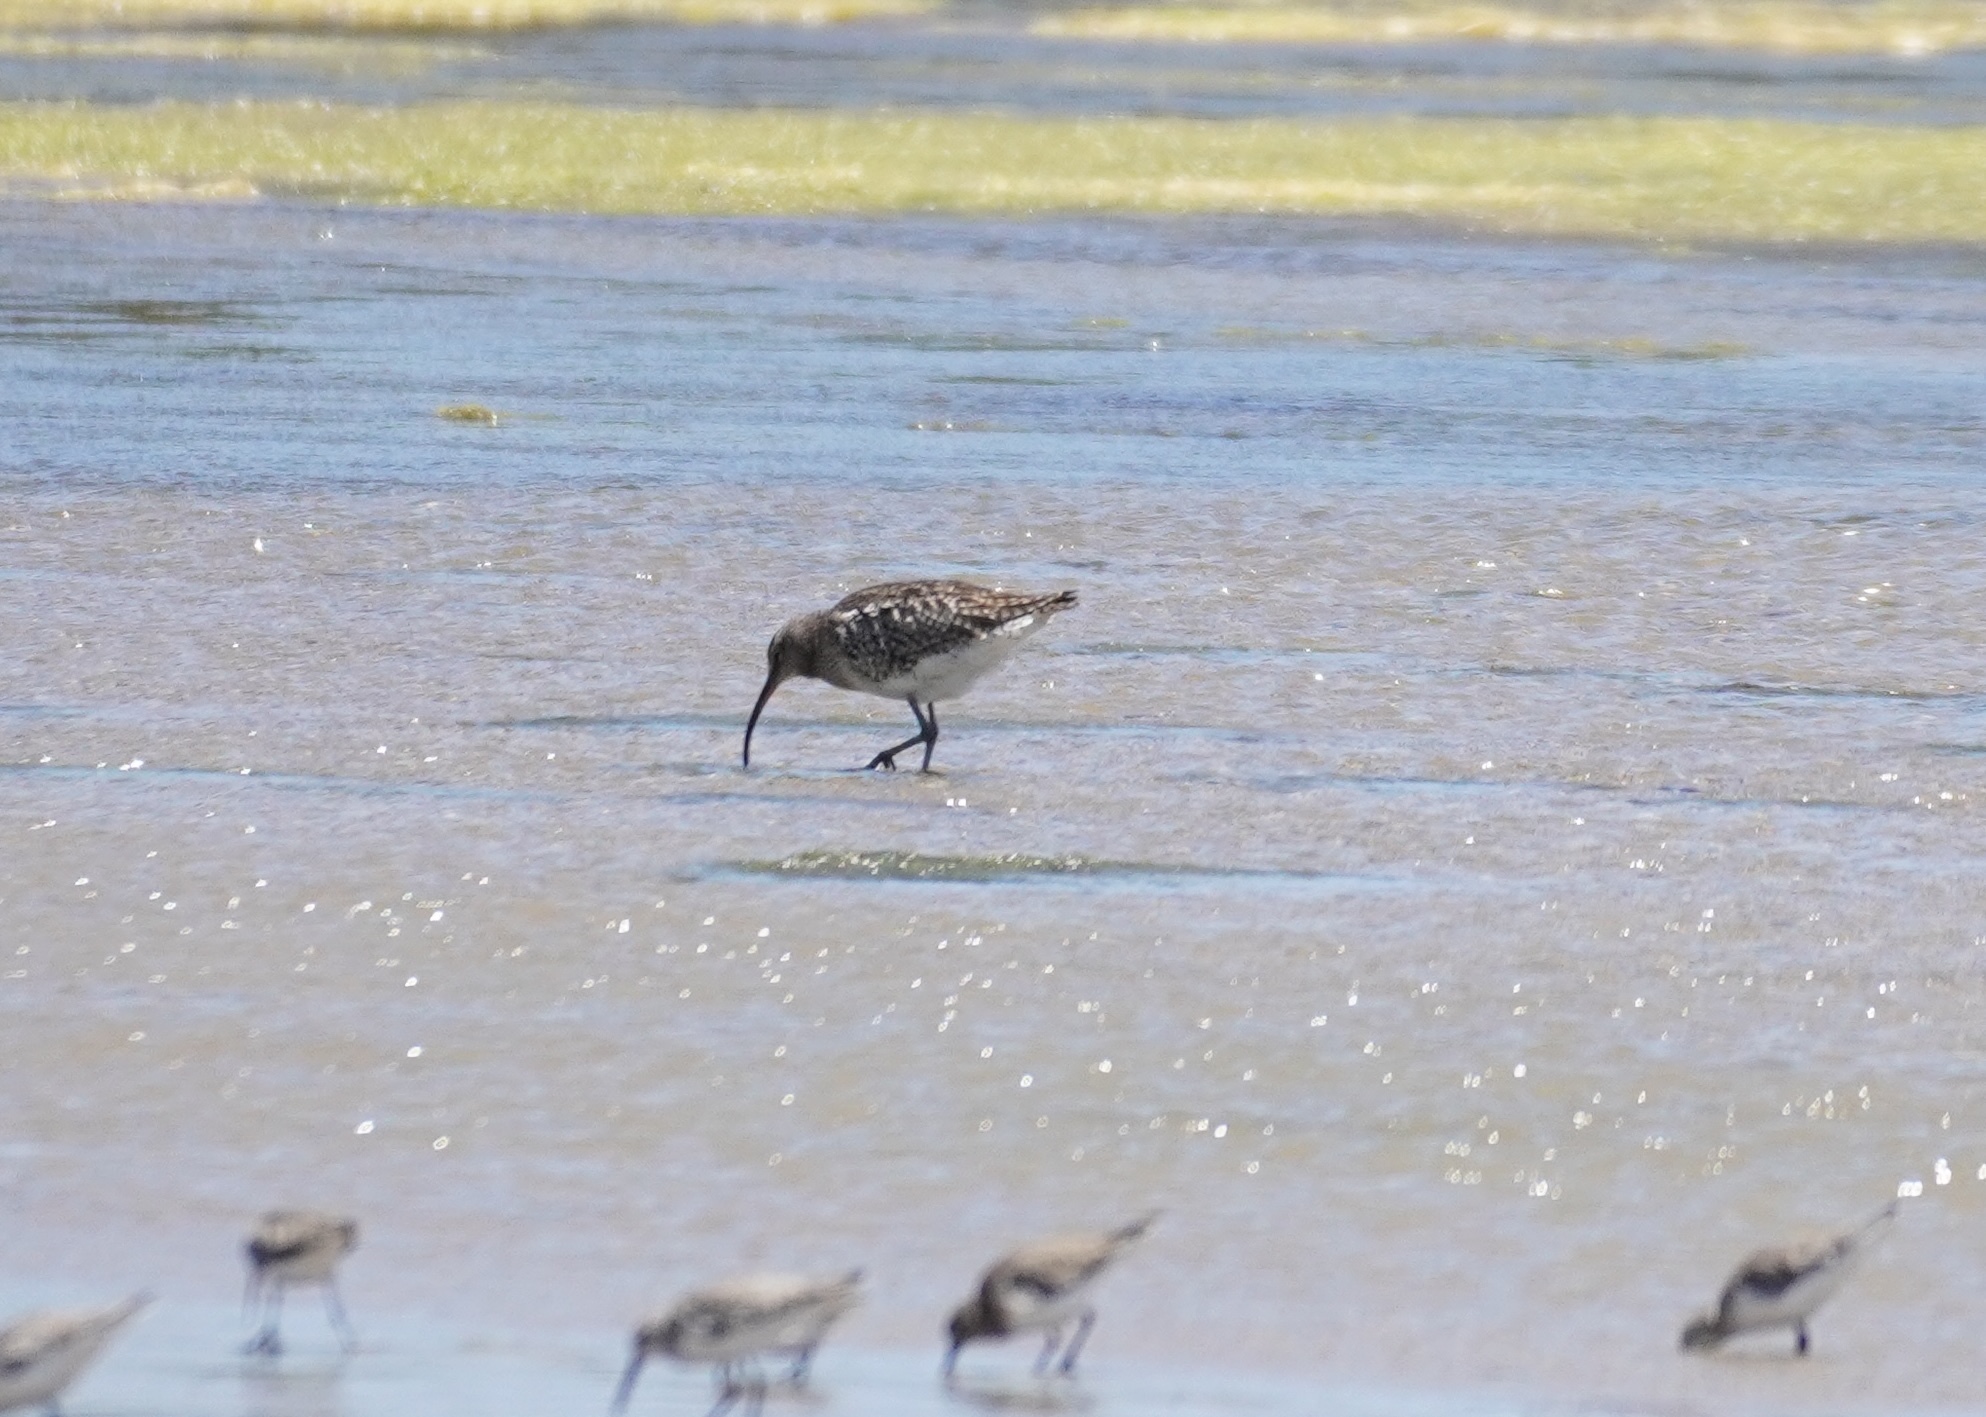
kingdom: Animalia
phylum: Chordata
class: Aves
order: Charadriiformes
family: Scolopacidae
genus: Numenius
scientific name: Numenius phaeopus
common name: Whimbrel
